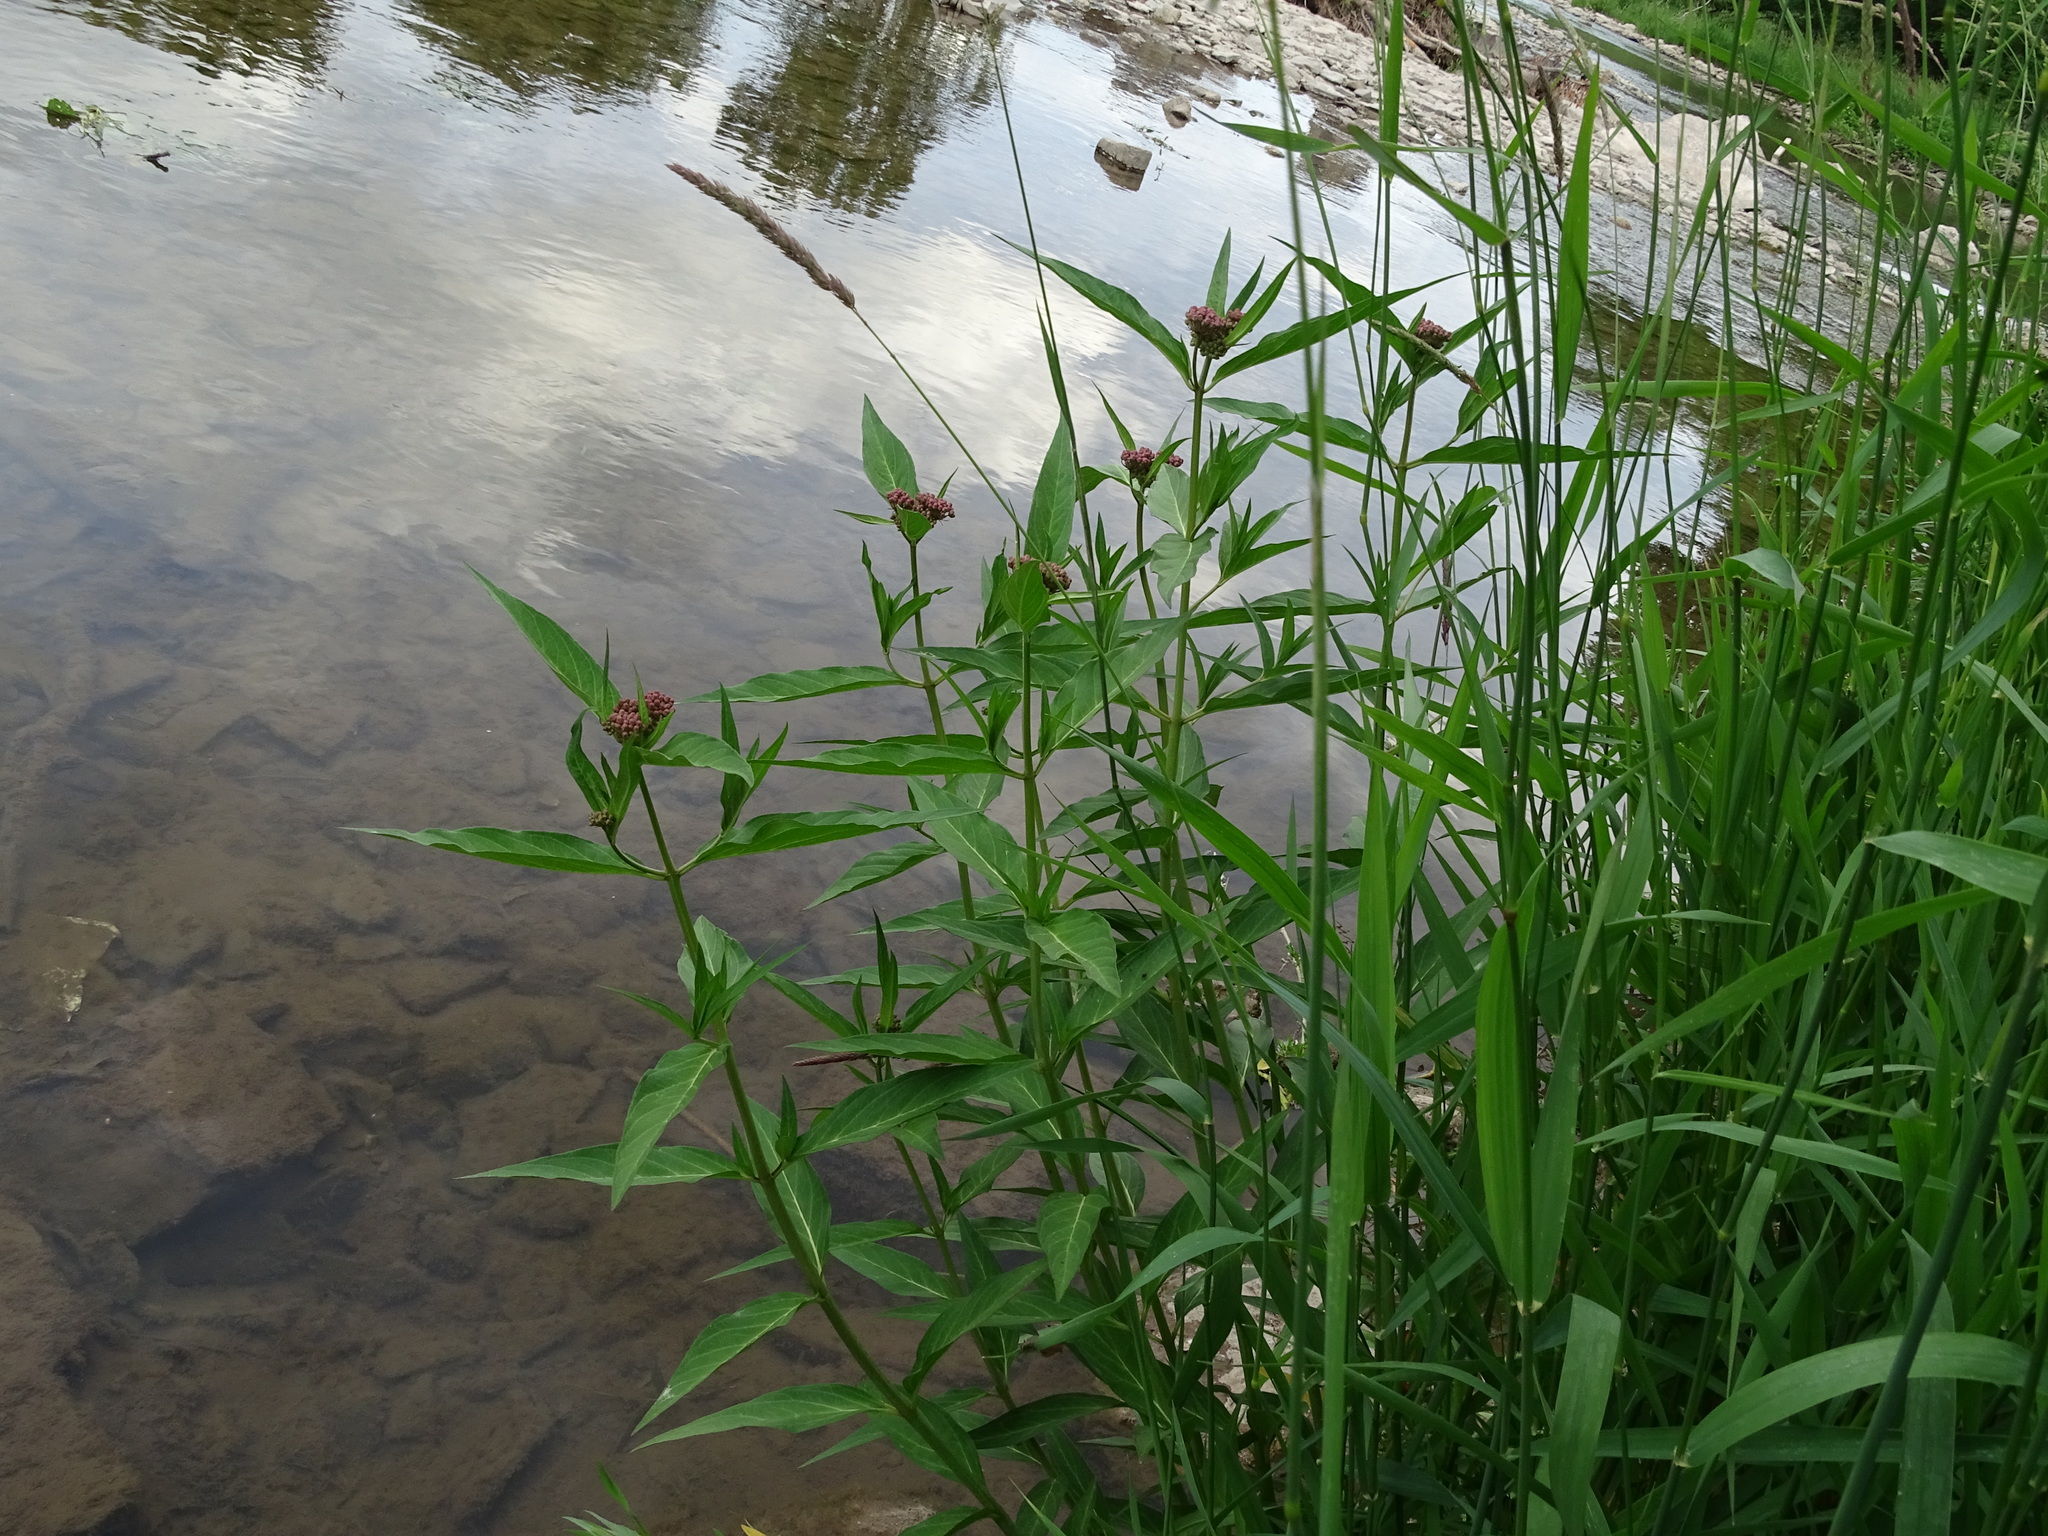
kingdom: Plantae
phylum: Tracheophyta
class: Magnoliopsida
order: Gentianales
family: Apocynaceae
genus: Asclepias
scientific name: Asclepias incarnata
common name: Swamp milkweed
